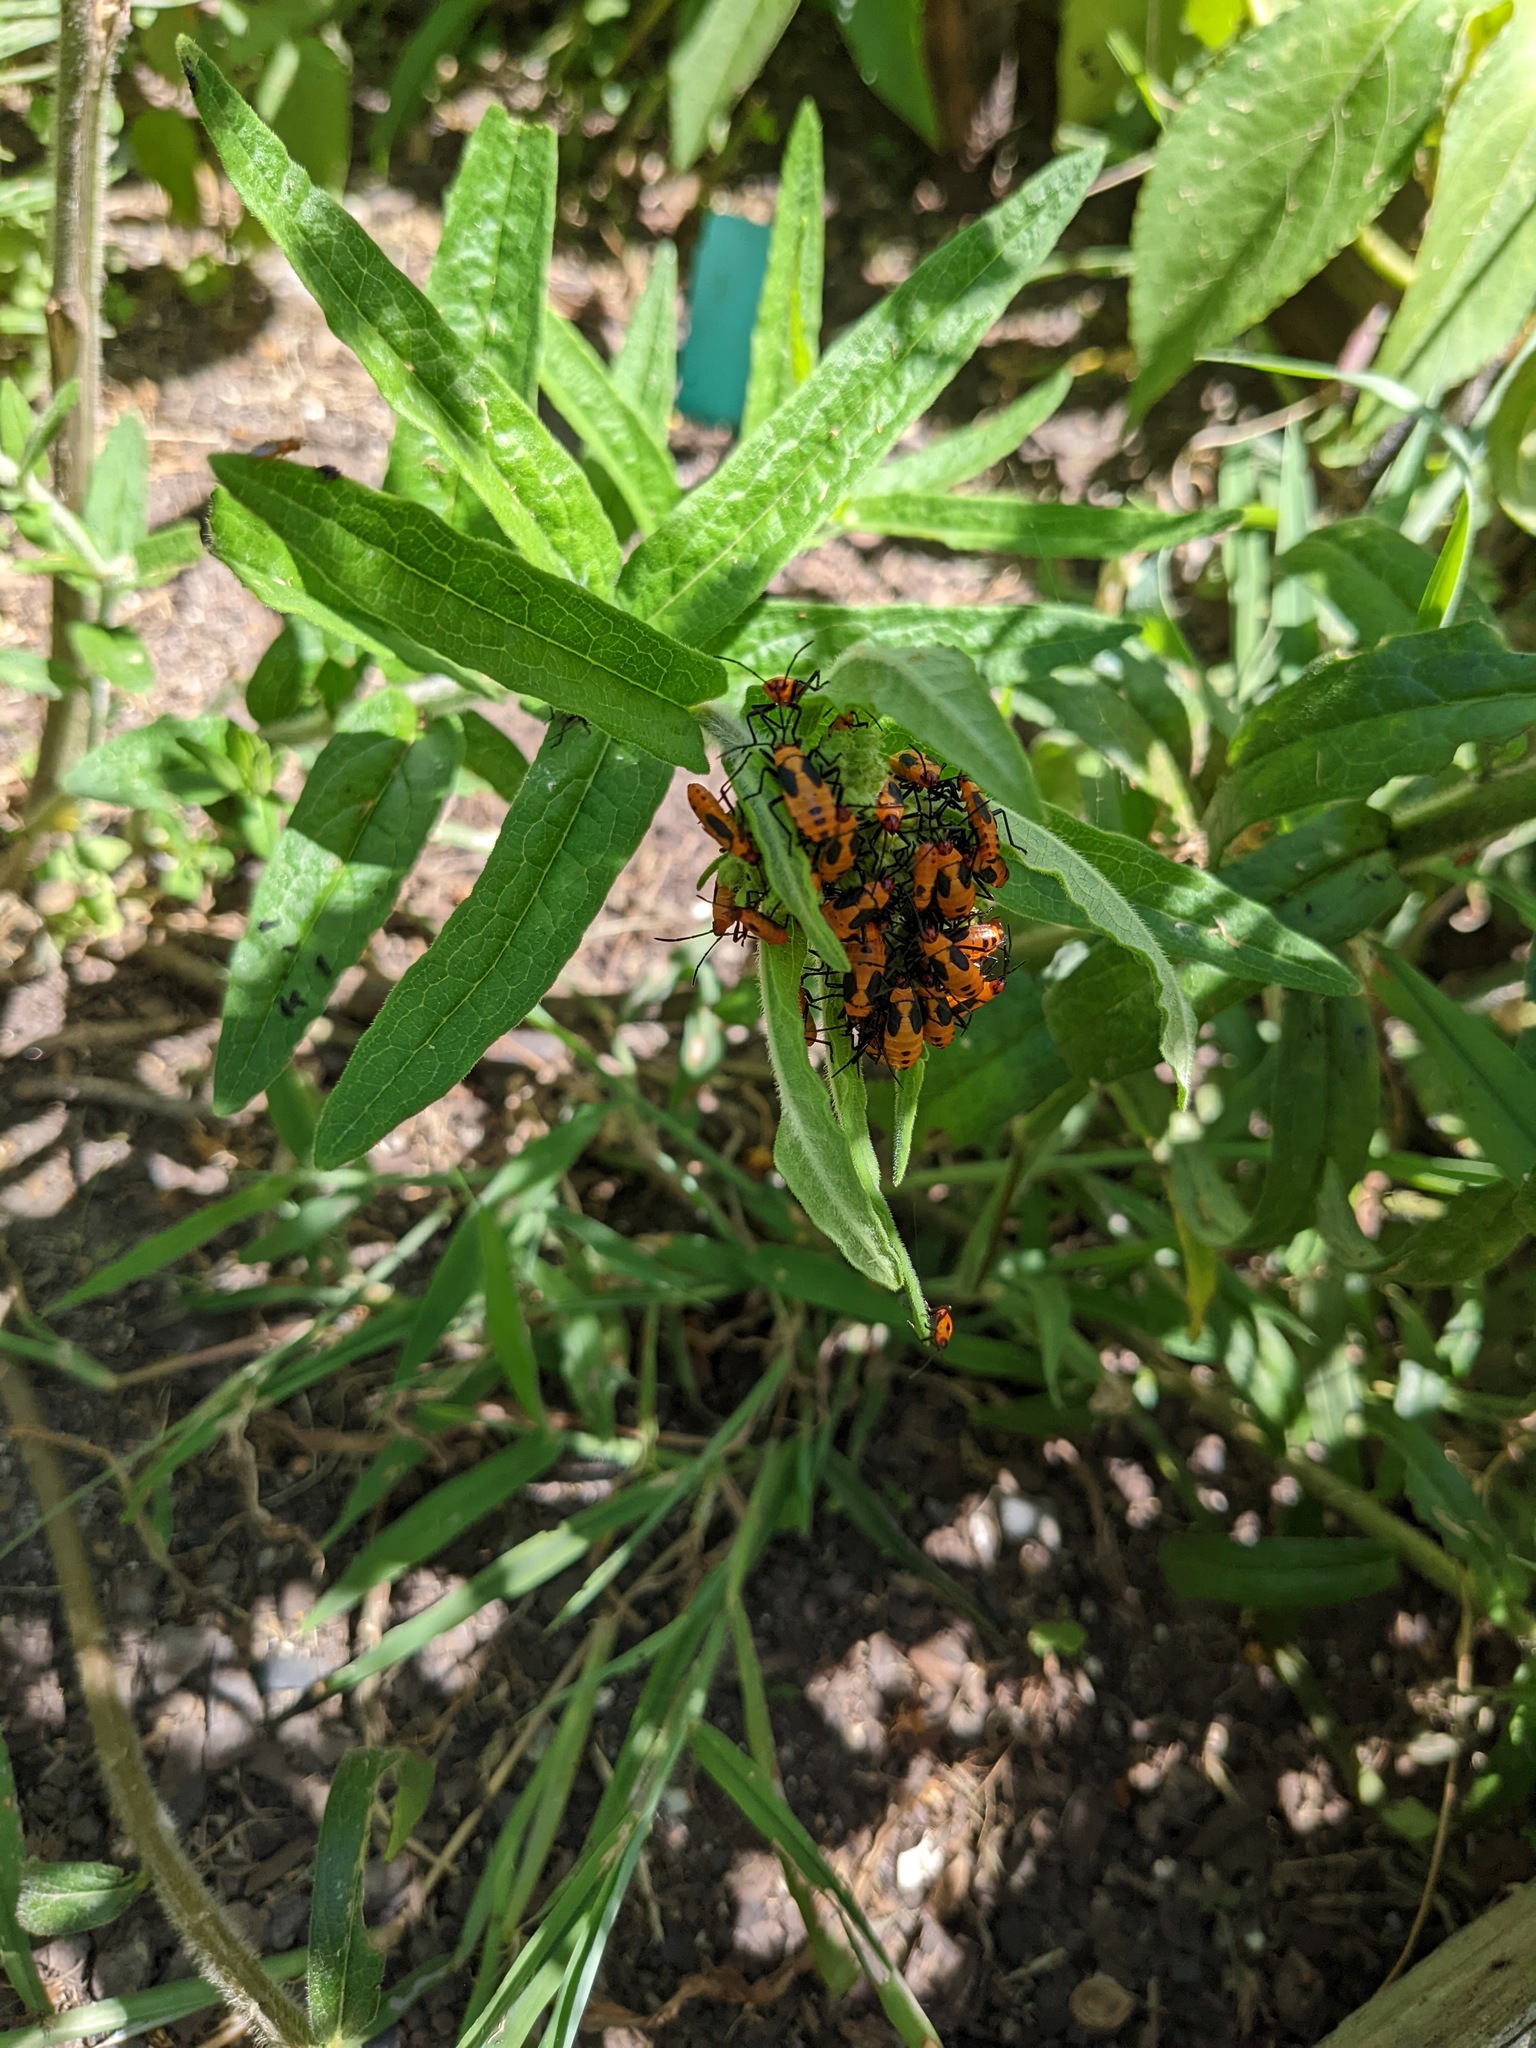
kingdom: Animalia
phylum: Arthropoda
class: Insecta
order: Hemiptera
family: Lygaeidae
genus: Oncopeltus
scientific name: Oncopeltus fasciatus
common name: Large milkweed bug
